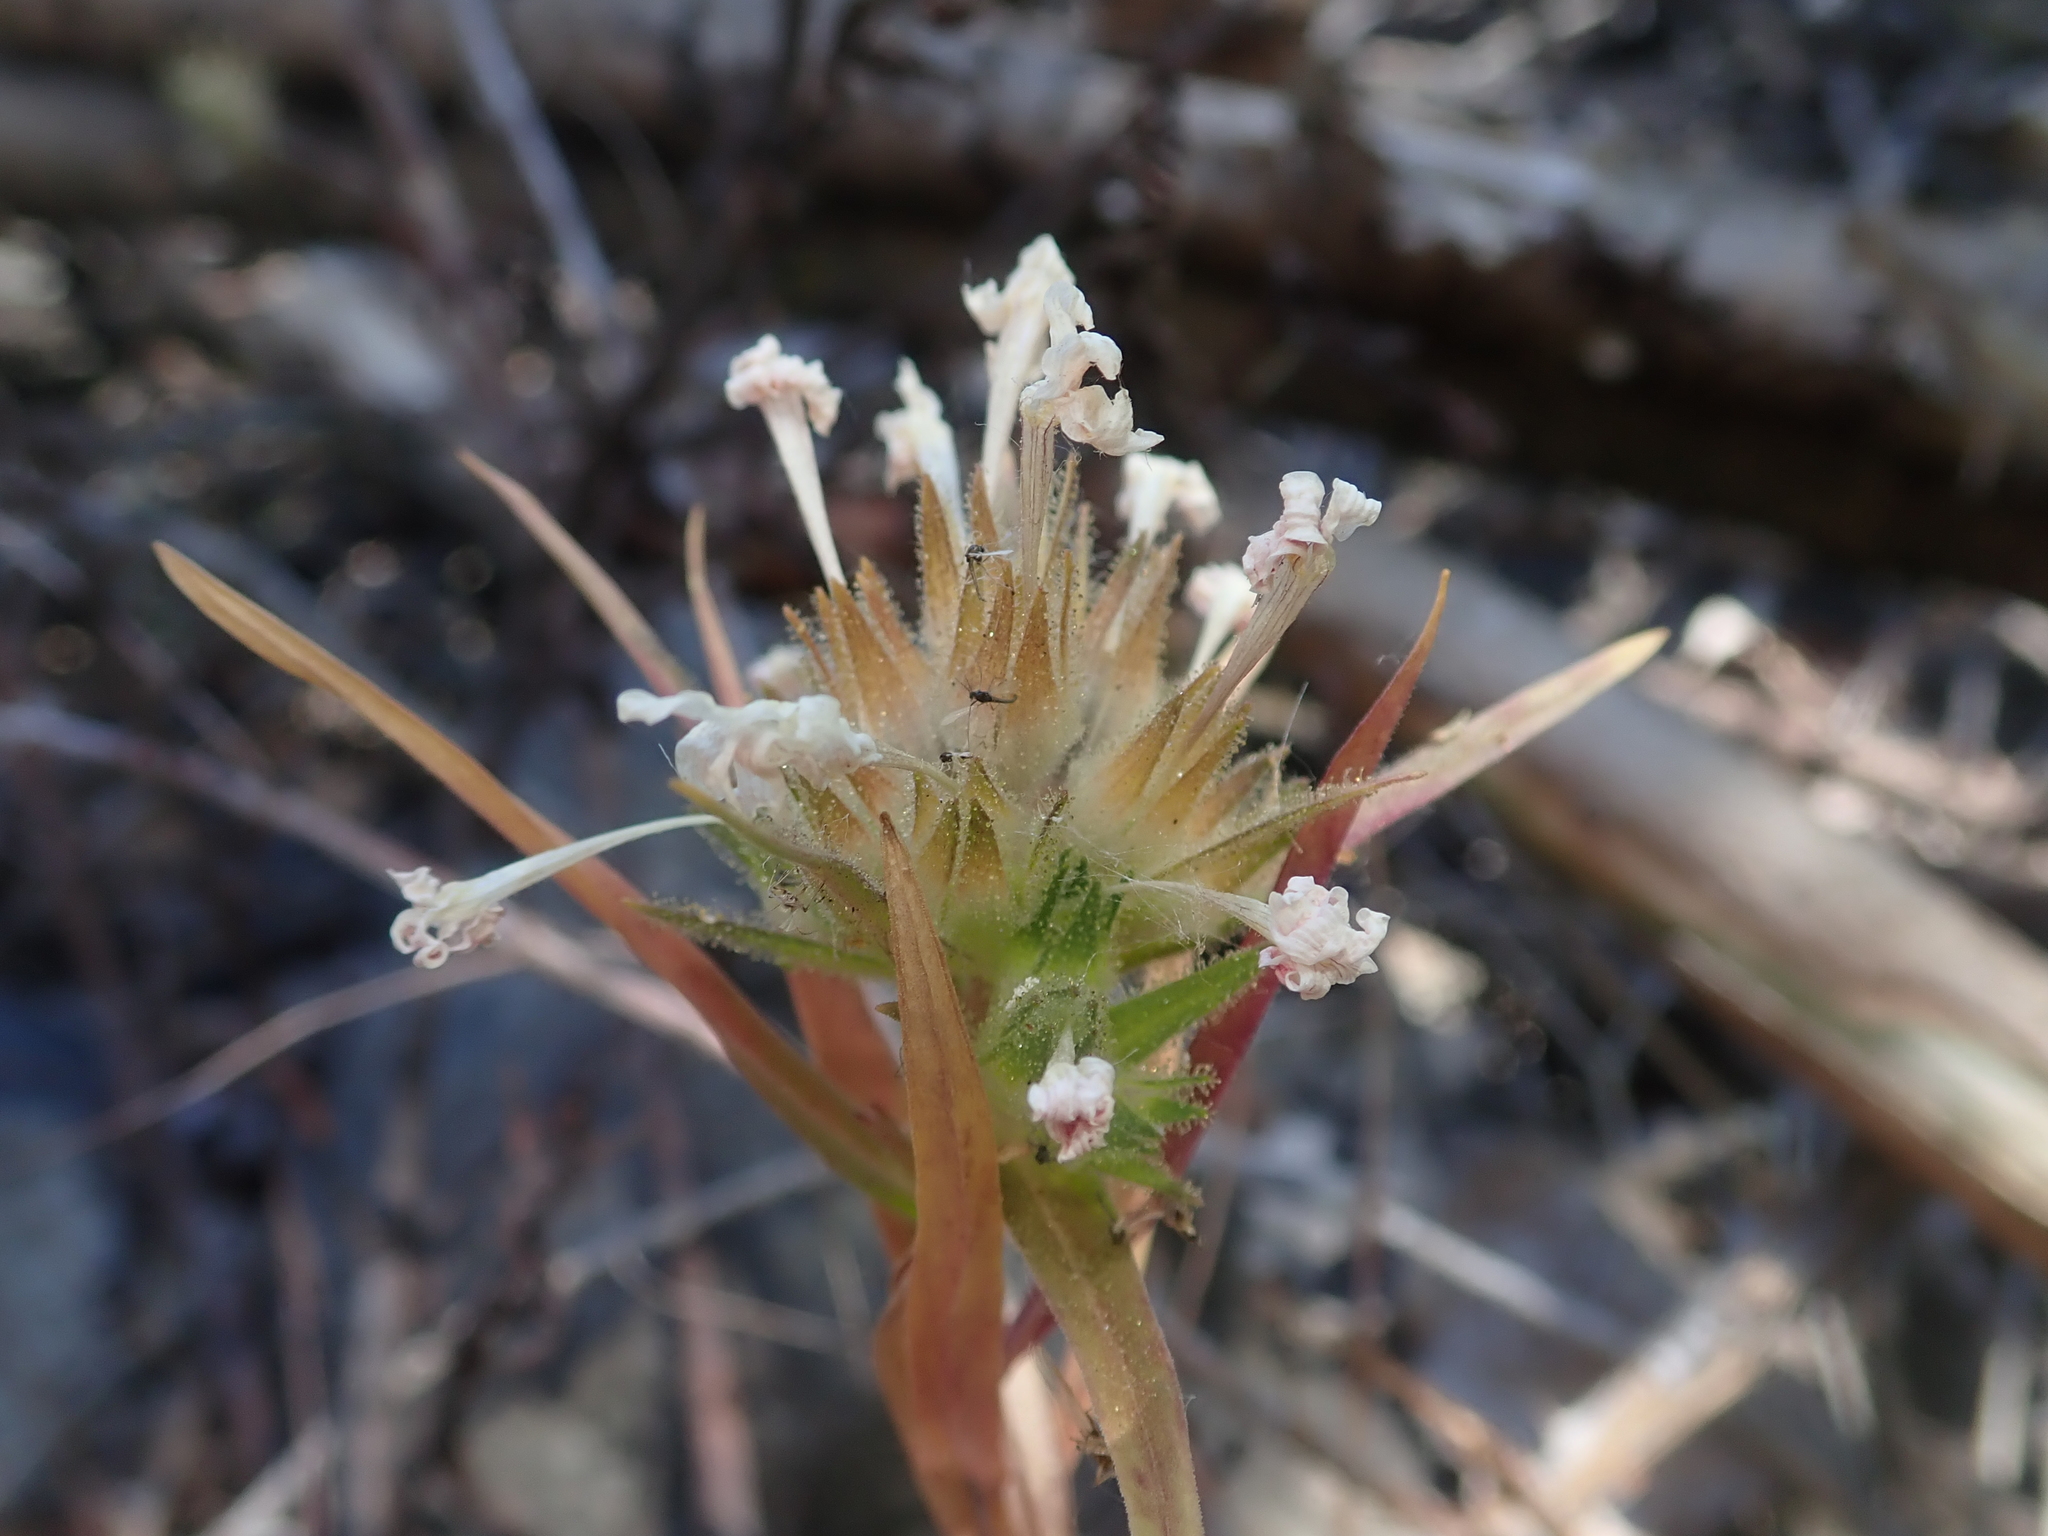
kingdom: Plantae
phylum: Tracheophyta
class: Magnoliopsida
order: Ericales
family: Polemoniaceae
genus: Collomia
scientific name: Collomia biflora
